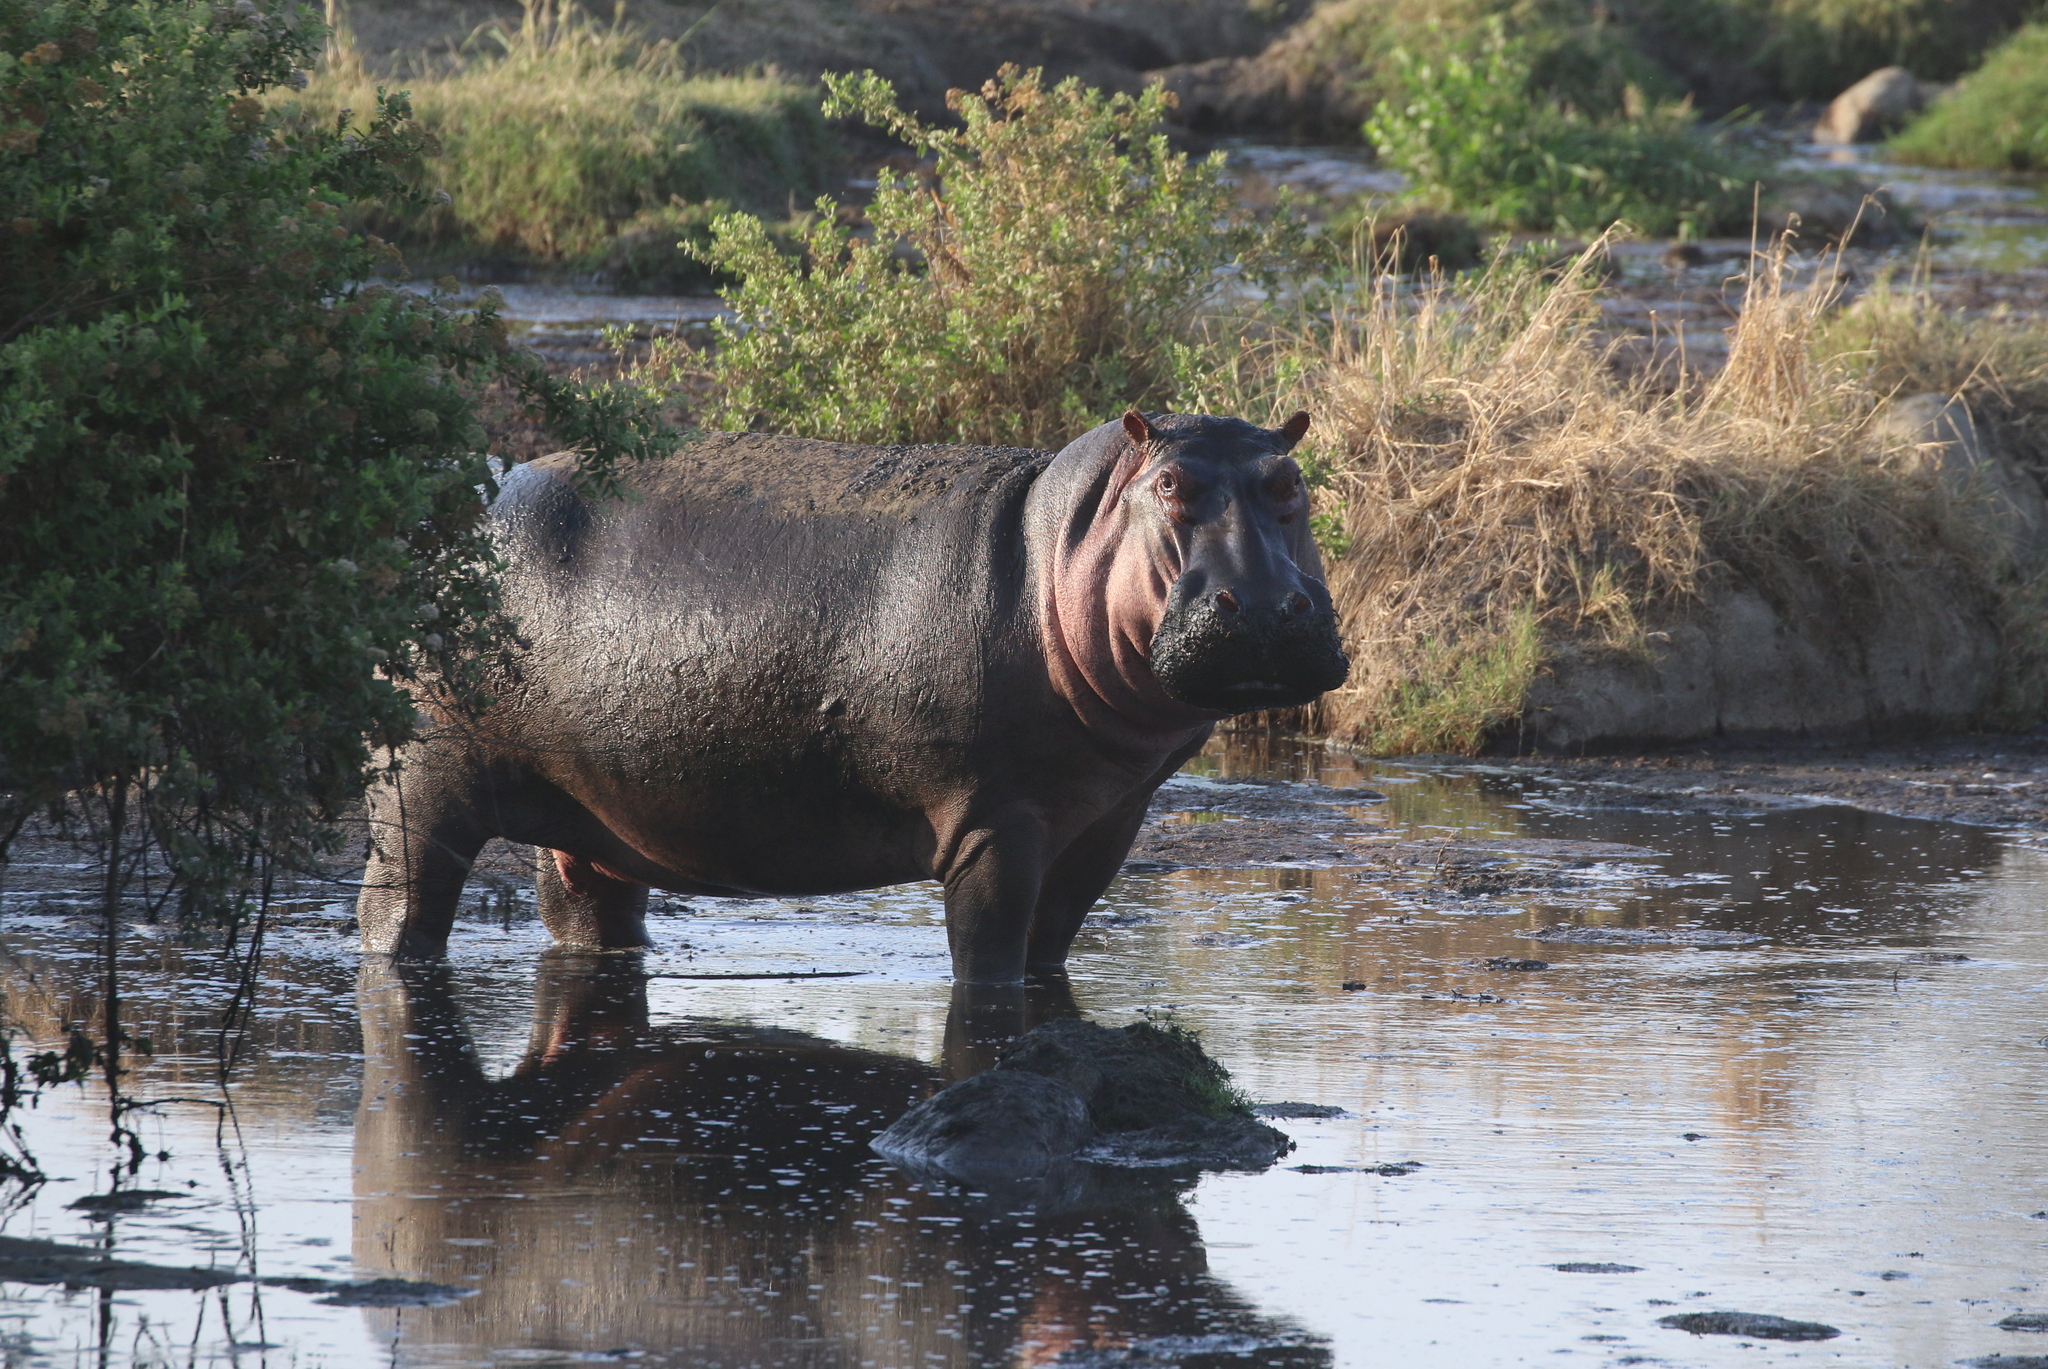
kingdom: Animalia
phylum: Chordata
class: Mammalia
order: Artiodactyla
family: Hippopotamidae
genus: Hippopotamus
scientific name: Hippopotamus amphibius
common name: Common hippopotamus
